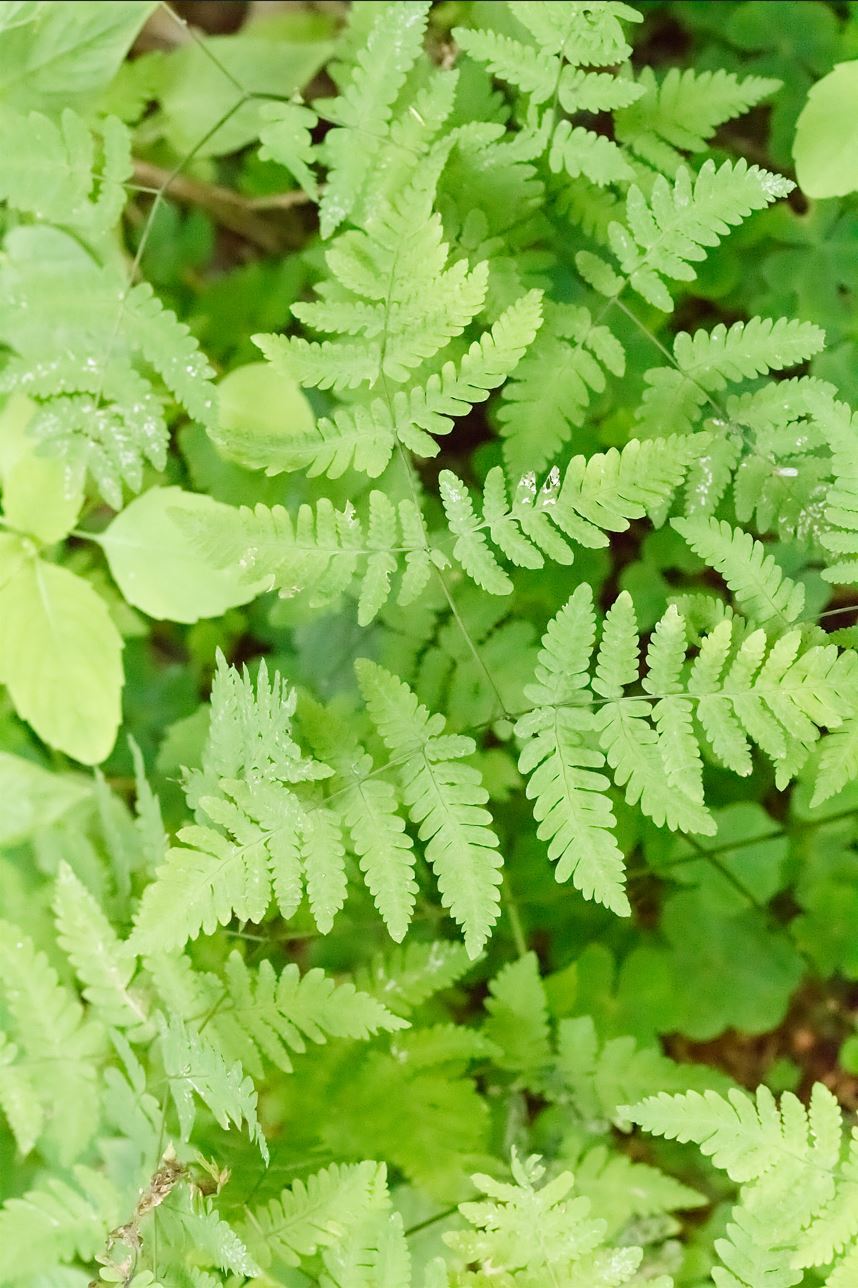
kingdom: Plantae
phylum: Tracheophyta
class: Polypodiopsida
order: Polypodiales
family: Cystopteridaceae
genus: Gymnocarpium
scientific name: Gymnocarpium dryopteris
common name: Oak fern
